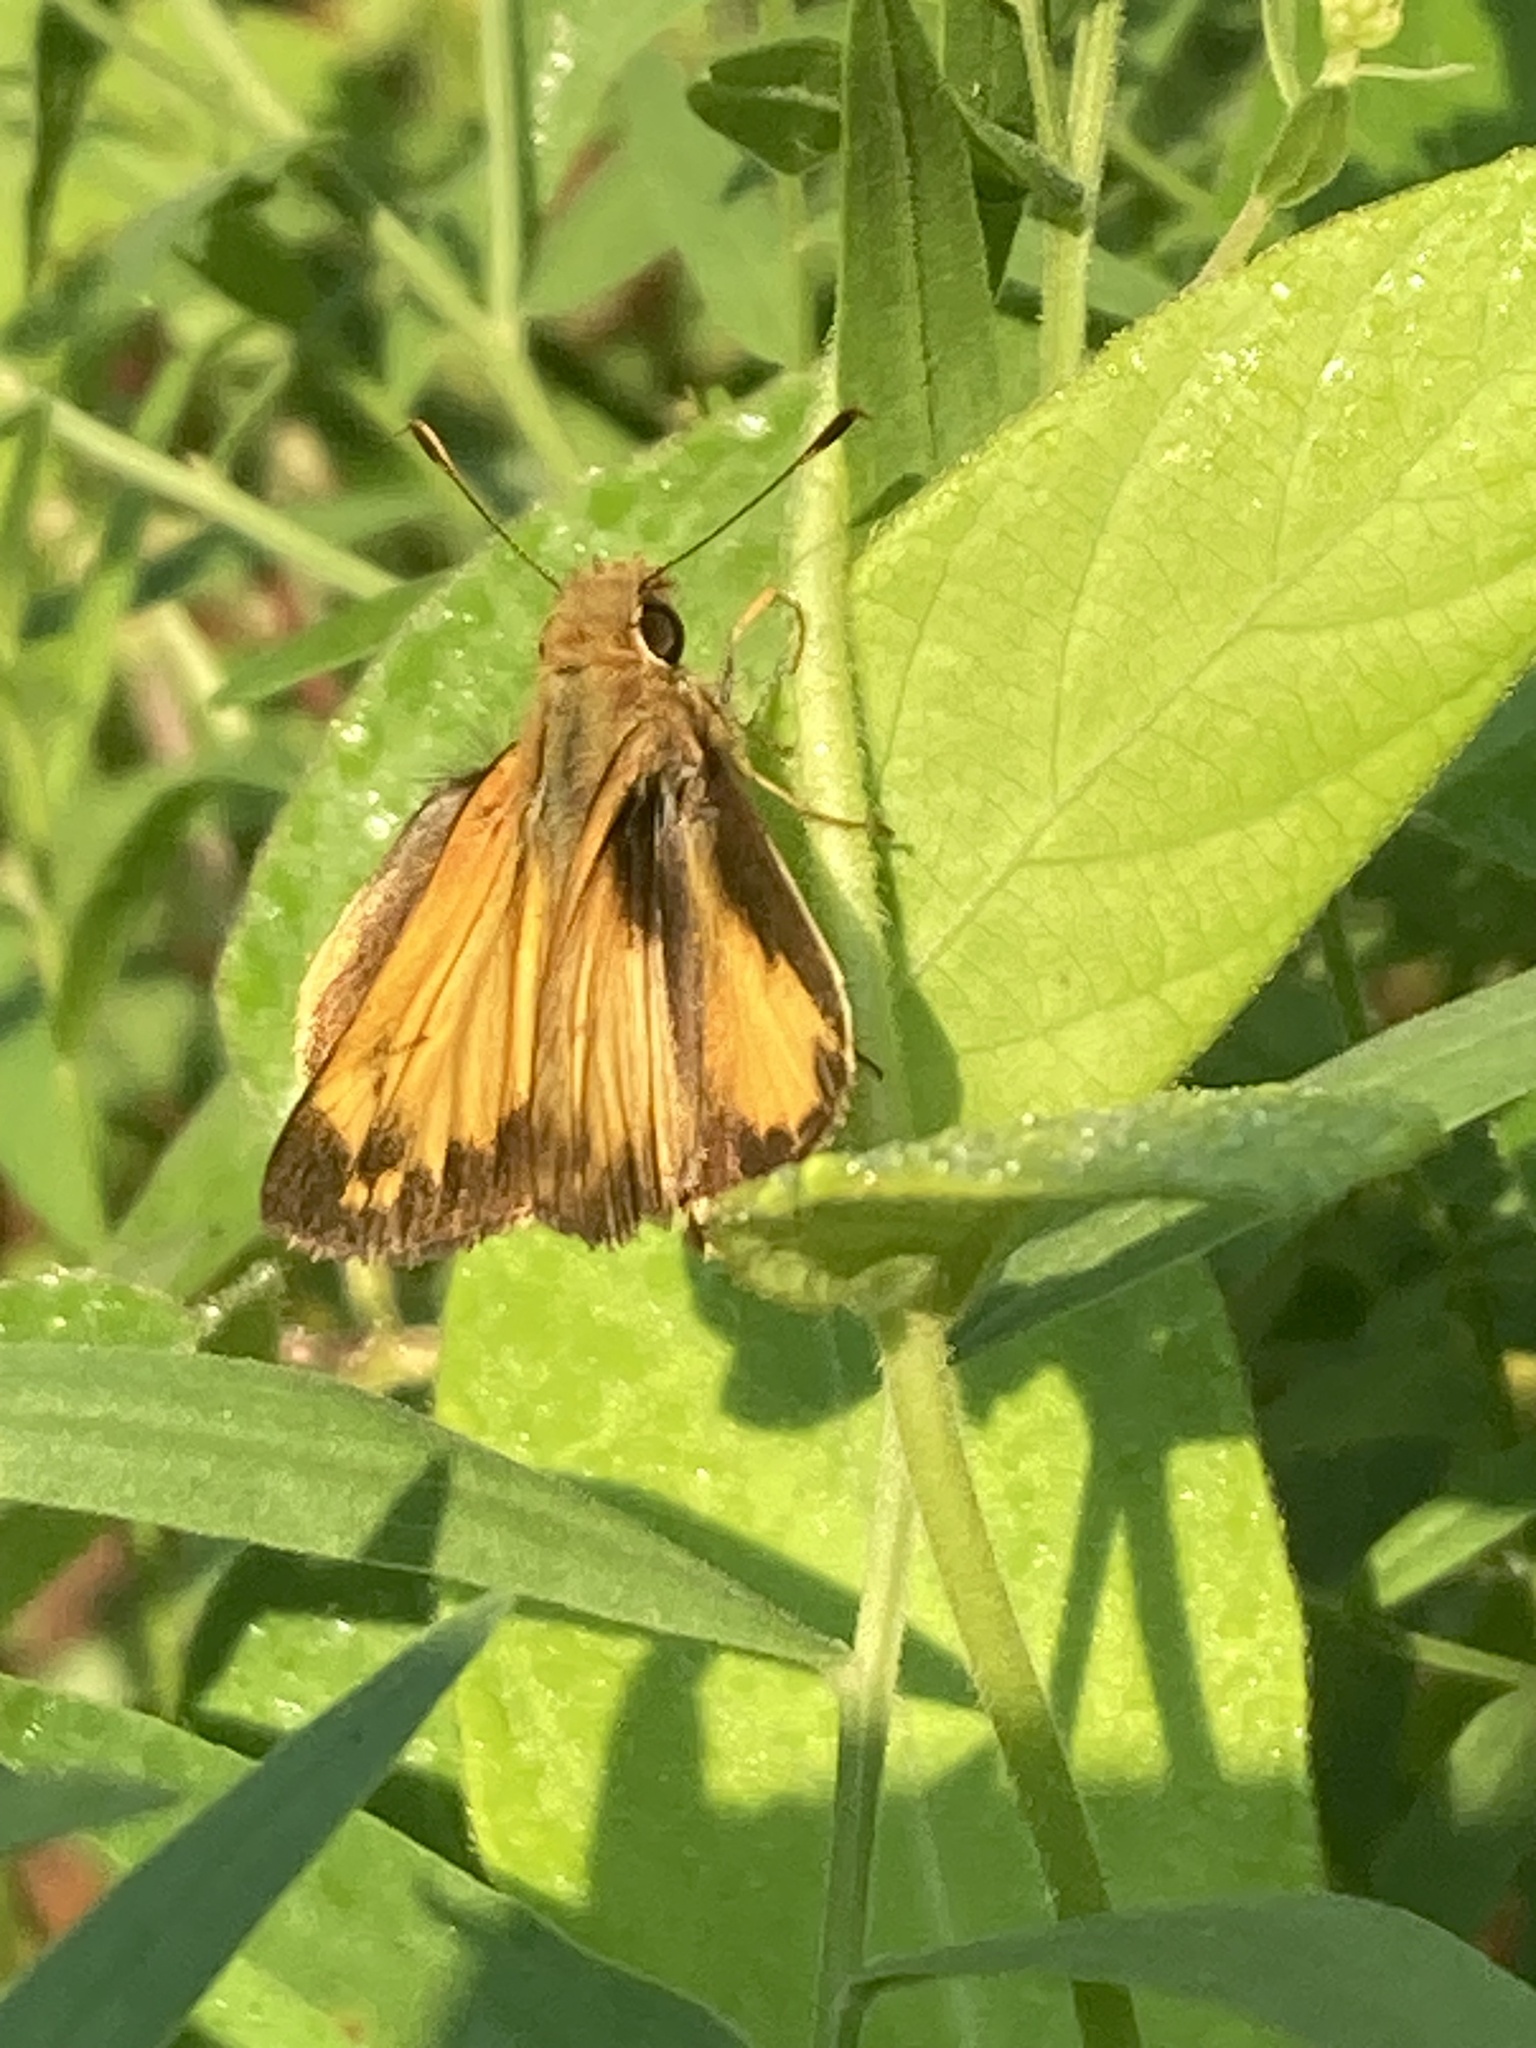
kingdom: Animalia
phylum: Arthropoda
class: Insecta
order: Lepidoptera
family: Hesperiidae
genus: Lon
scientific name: Lon zabulon
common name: Zabulon skipper
